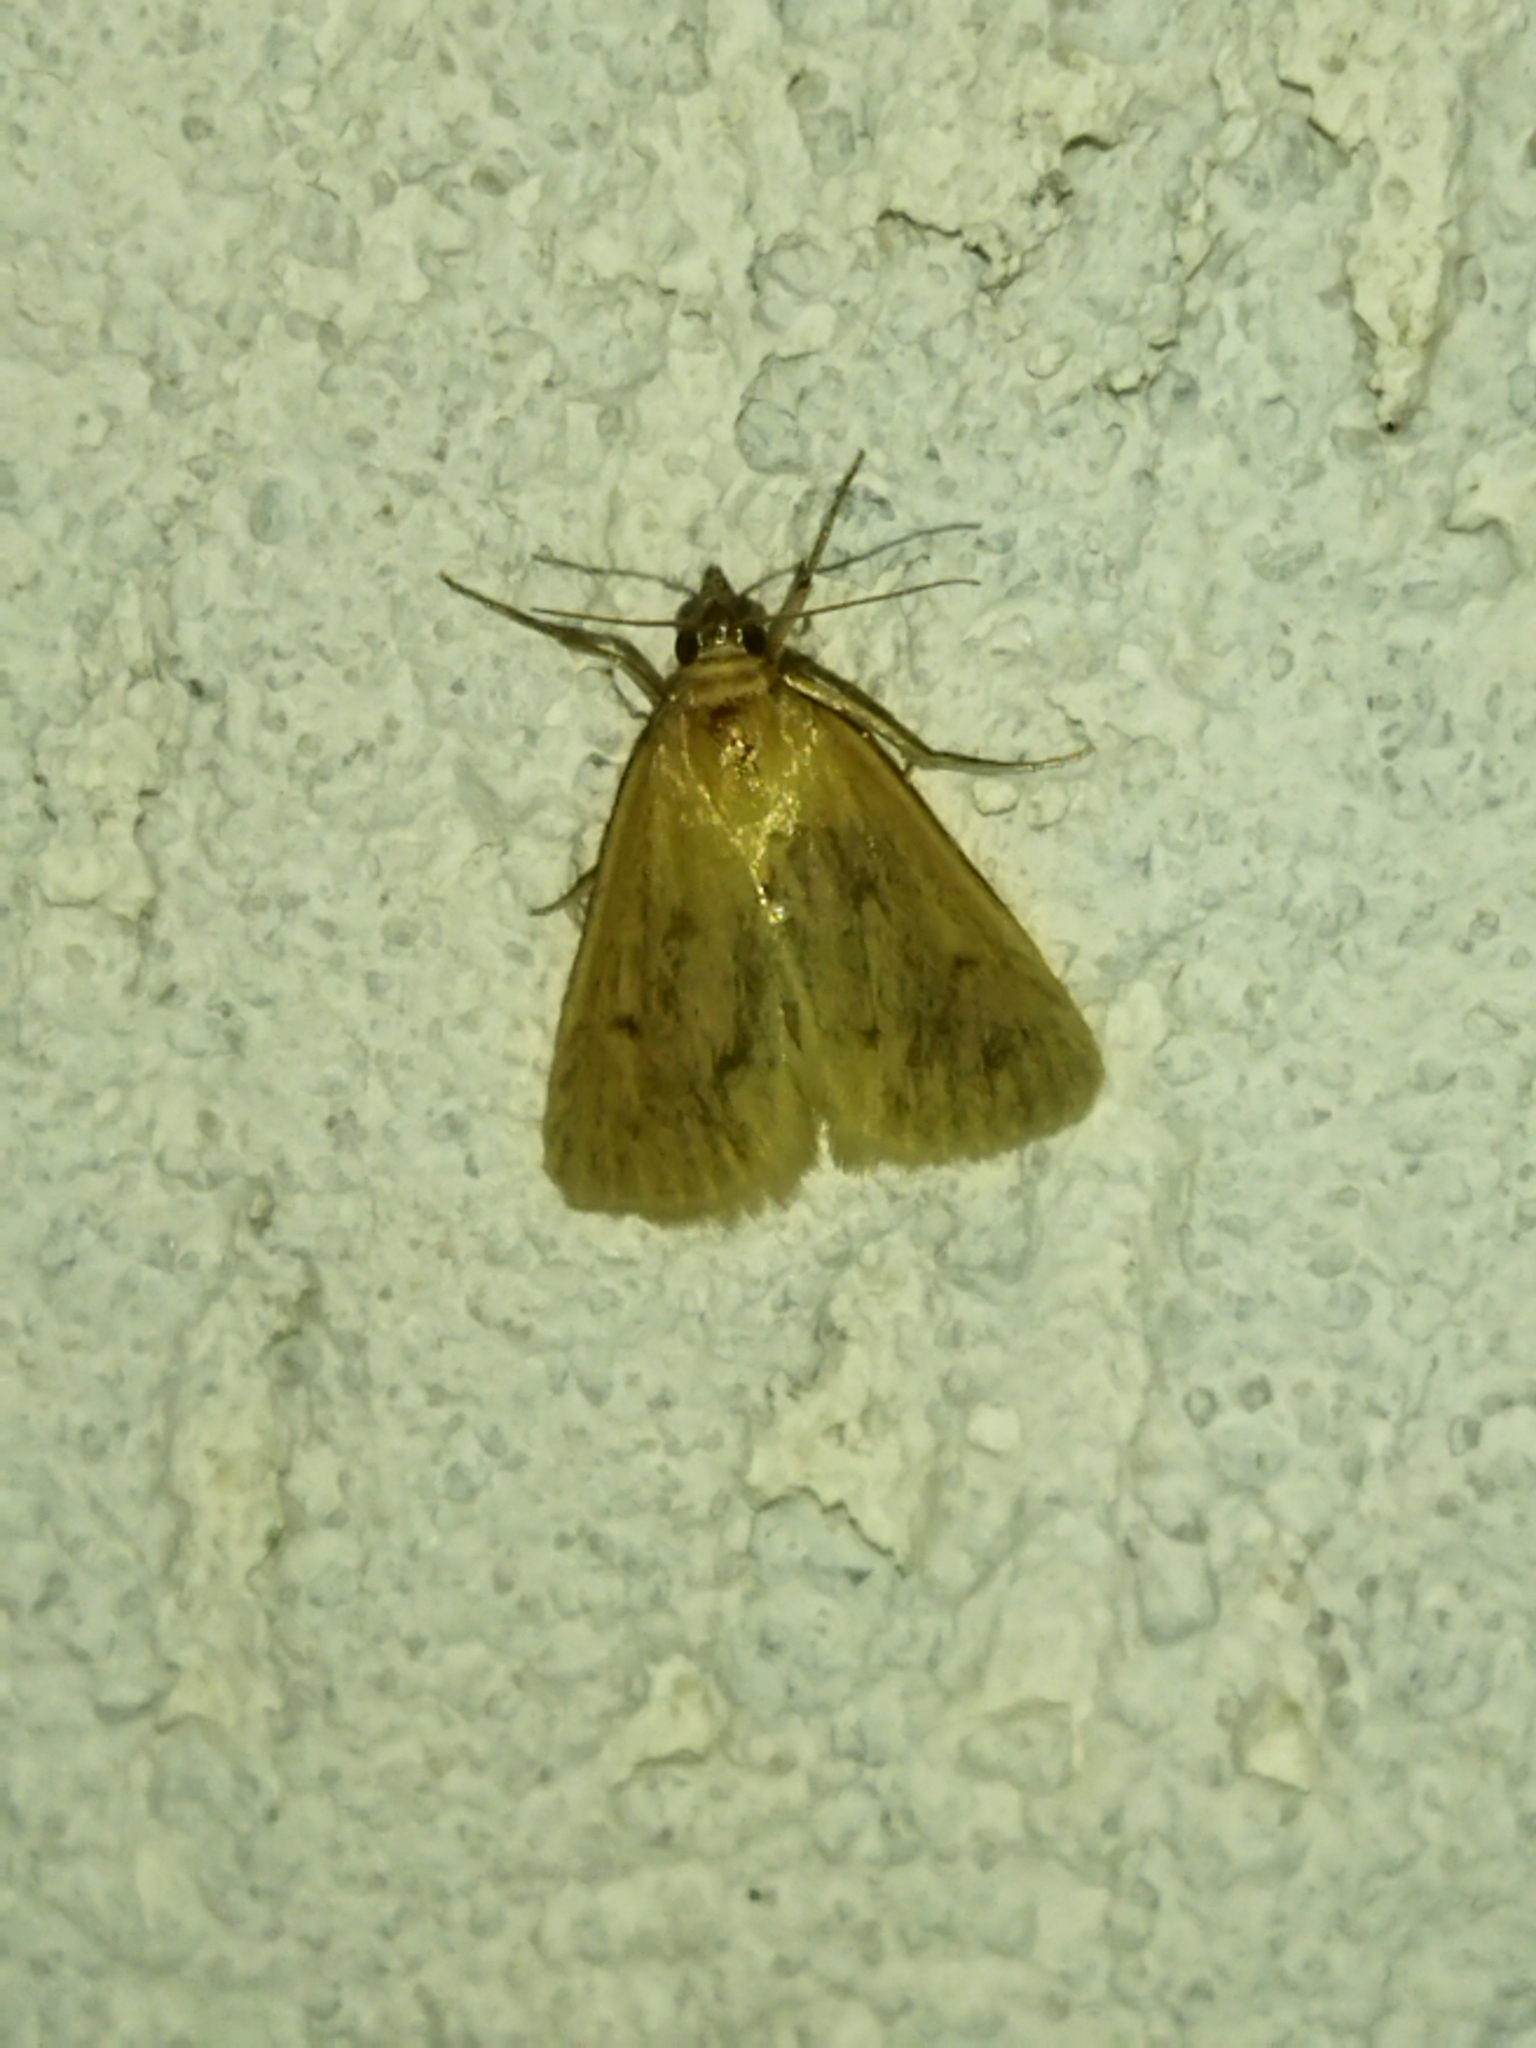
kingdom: Animalia
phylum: Arthropoda
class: Insecta
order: Lepidoptera
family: Crambidae
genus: Achyra
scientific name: Achyra nudalis
